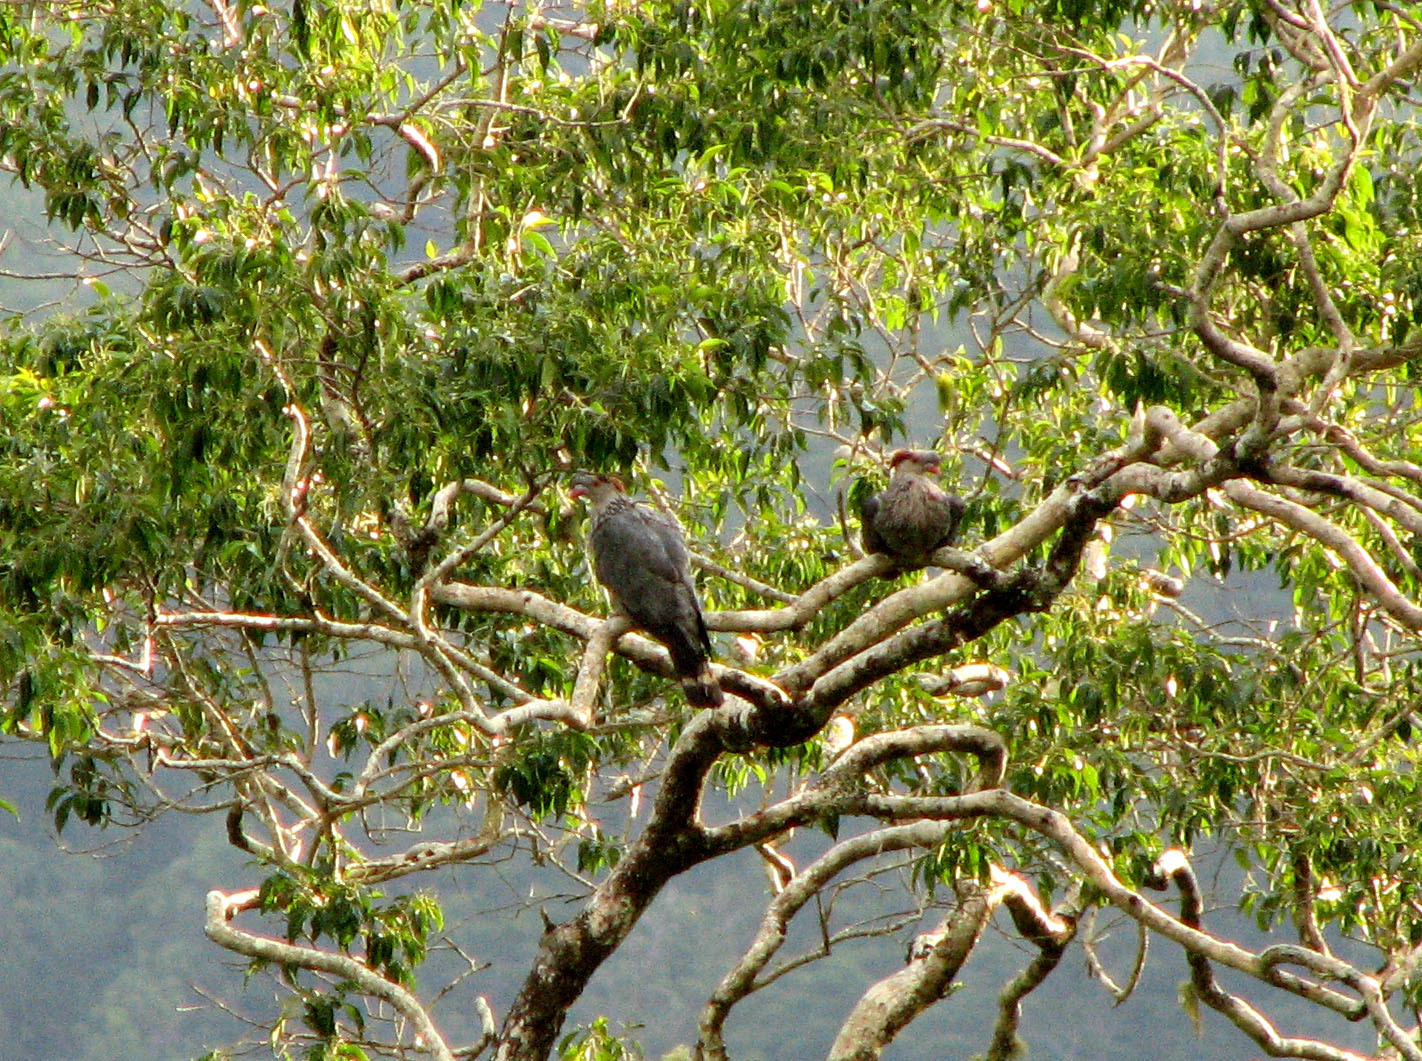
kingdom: Animalia
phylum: Chordata
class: Aves
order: Columbiformes
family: Columbidae
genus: Lopholaimus
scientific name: Lopholaimus antarcticus
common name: Topknot pigeon
